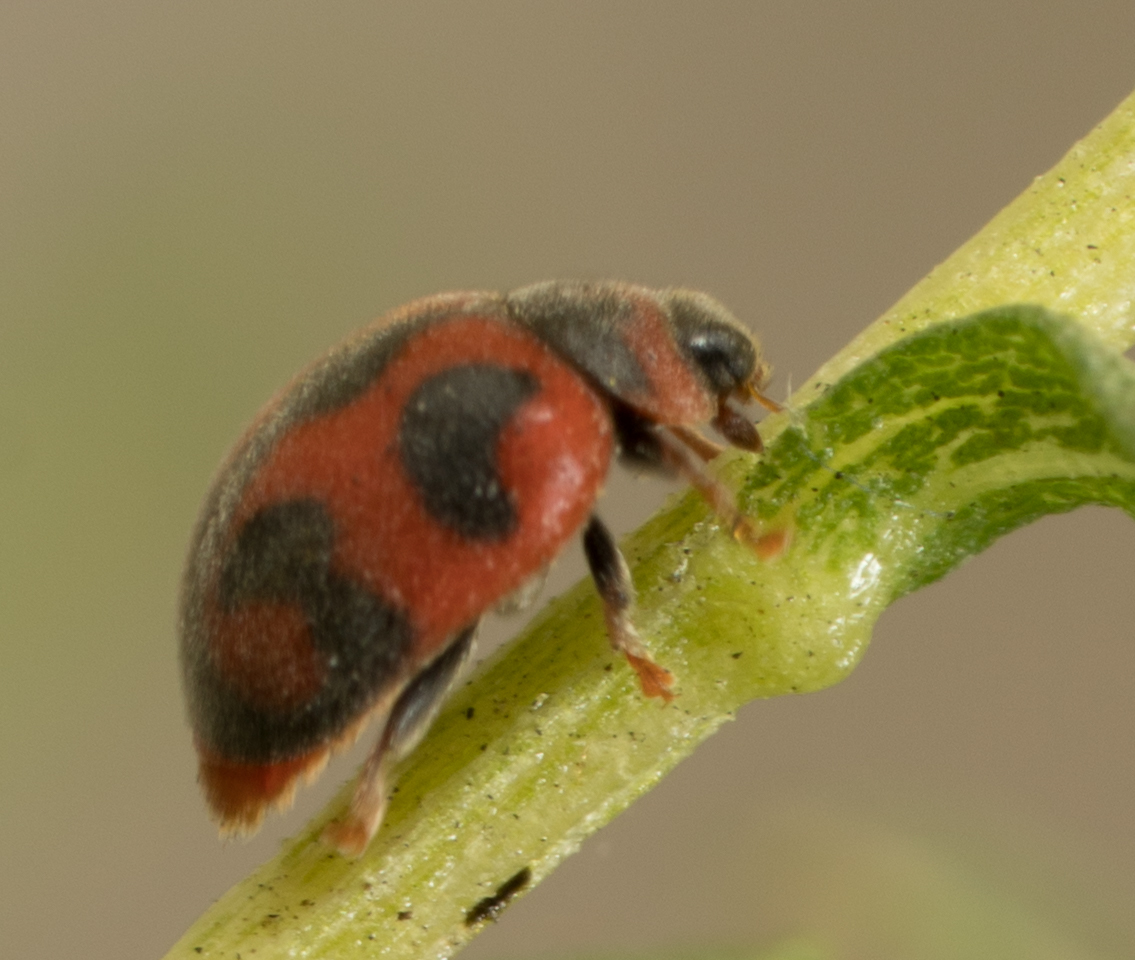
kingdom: Animalia
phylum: Arthropoda
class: Insecta
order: Coleoptera
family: Coccinellidae
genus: Novius
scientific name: Novius cardinalis
